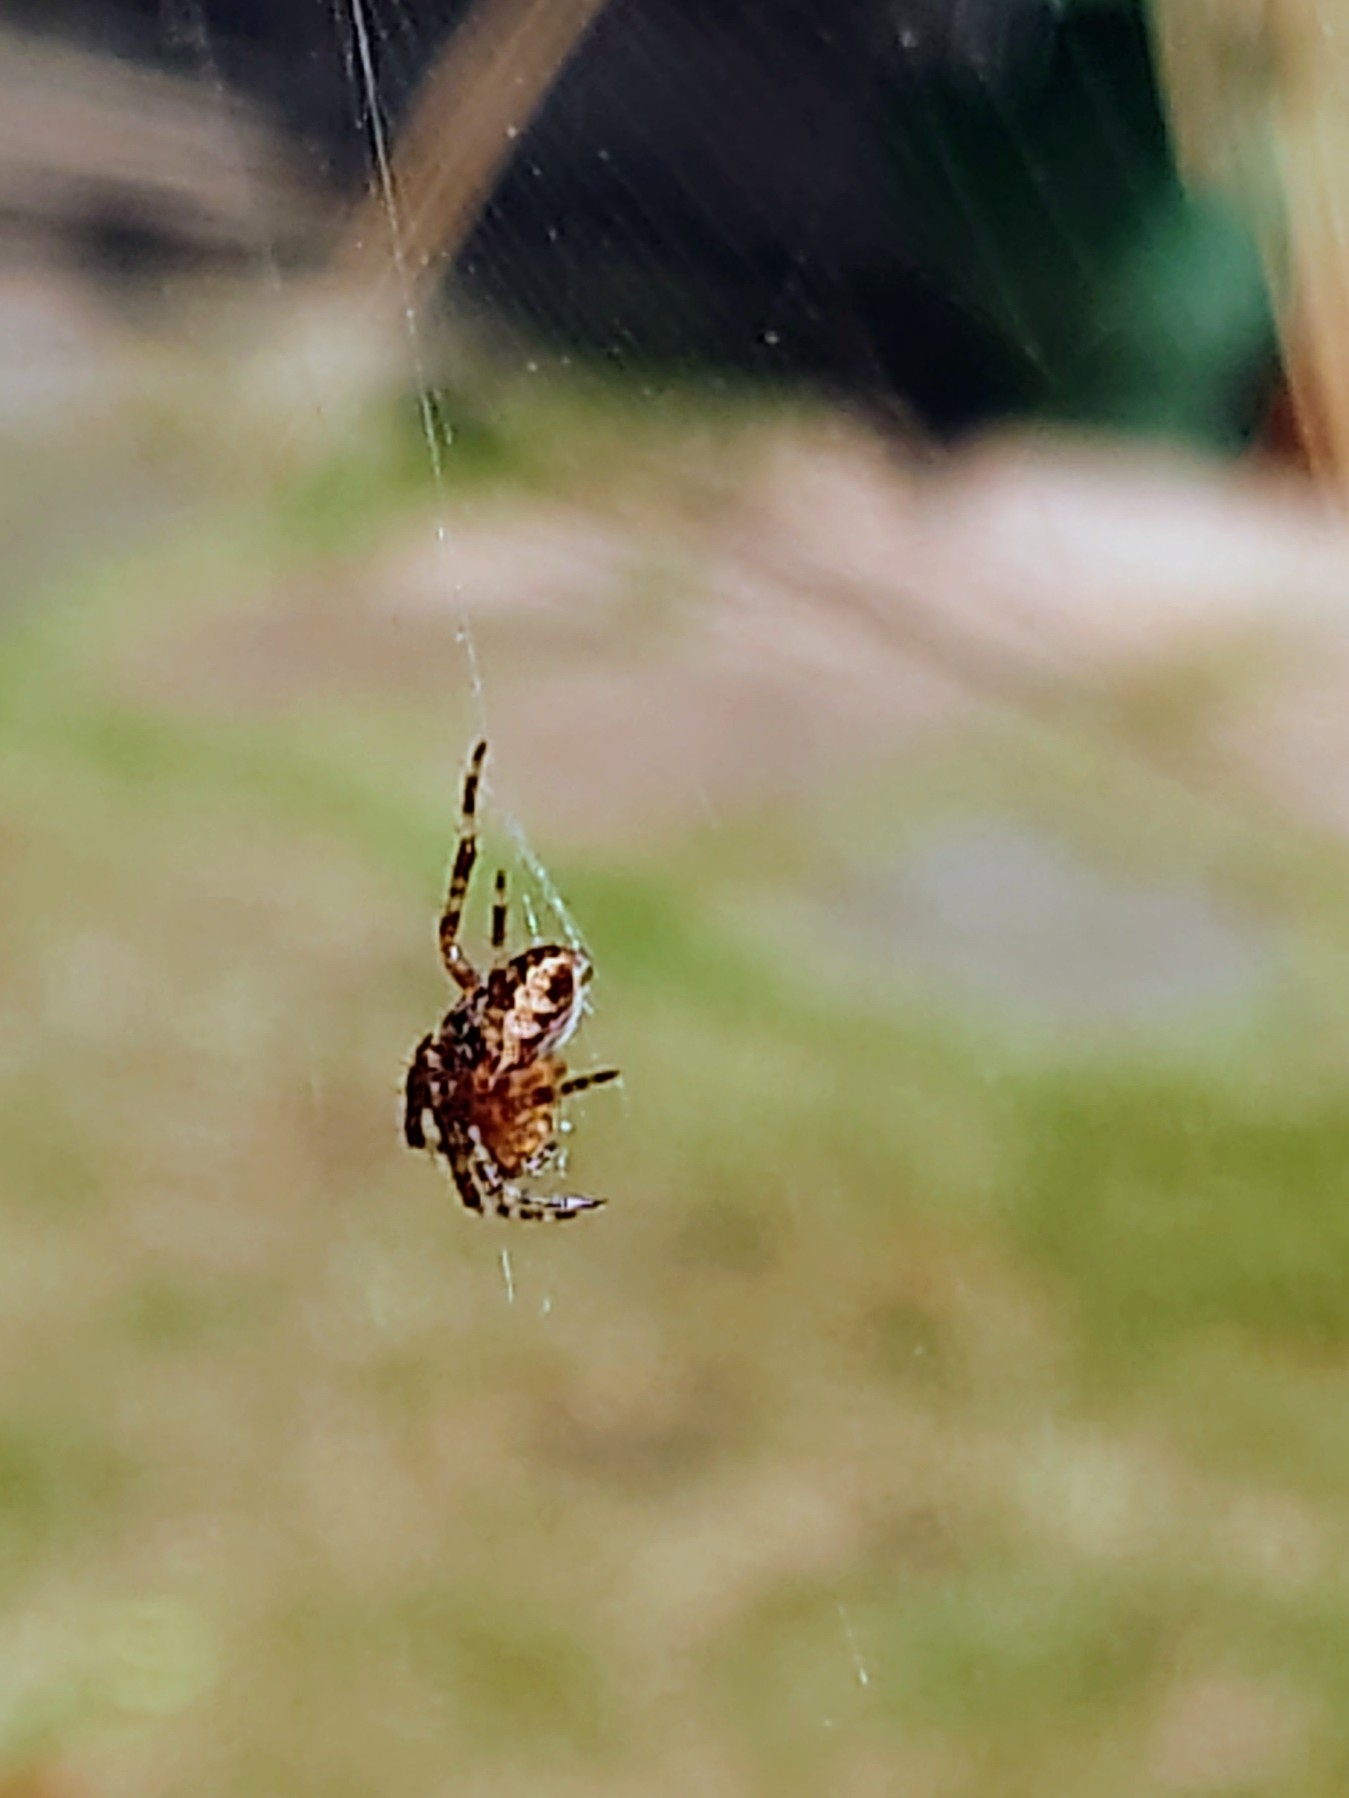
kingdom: Animalia
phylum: Arthropoda
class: Arachnida
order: Araneae
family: Araneidae
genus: Araneus
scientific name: Araneus diadematus
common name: Cross orbweaver
